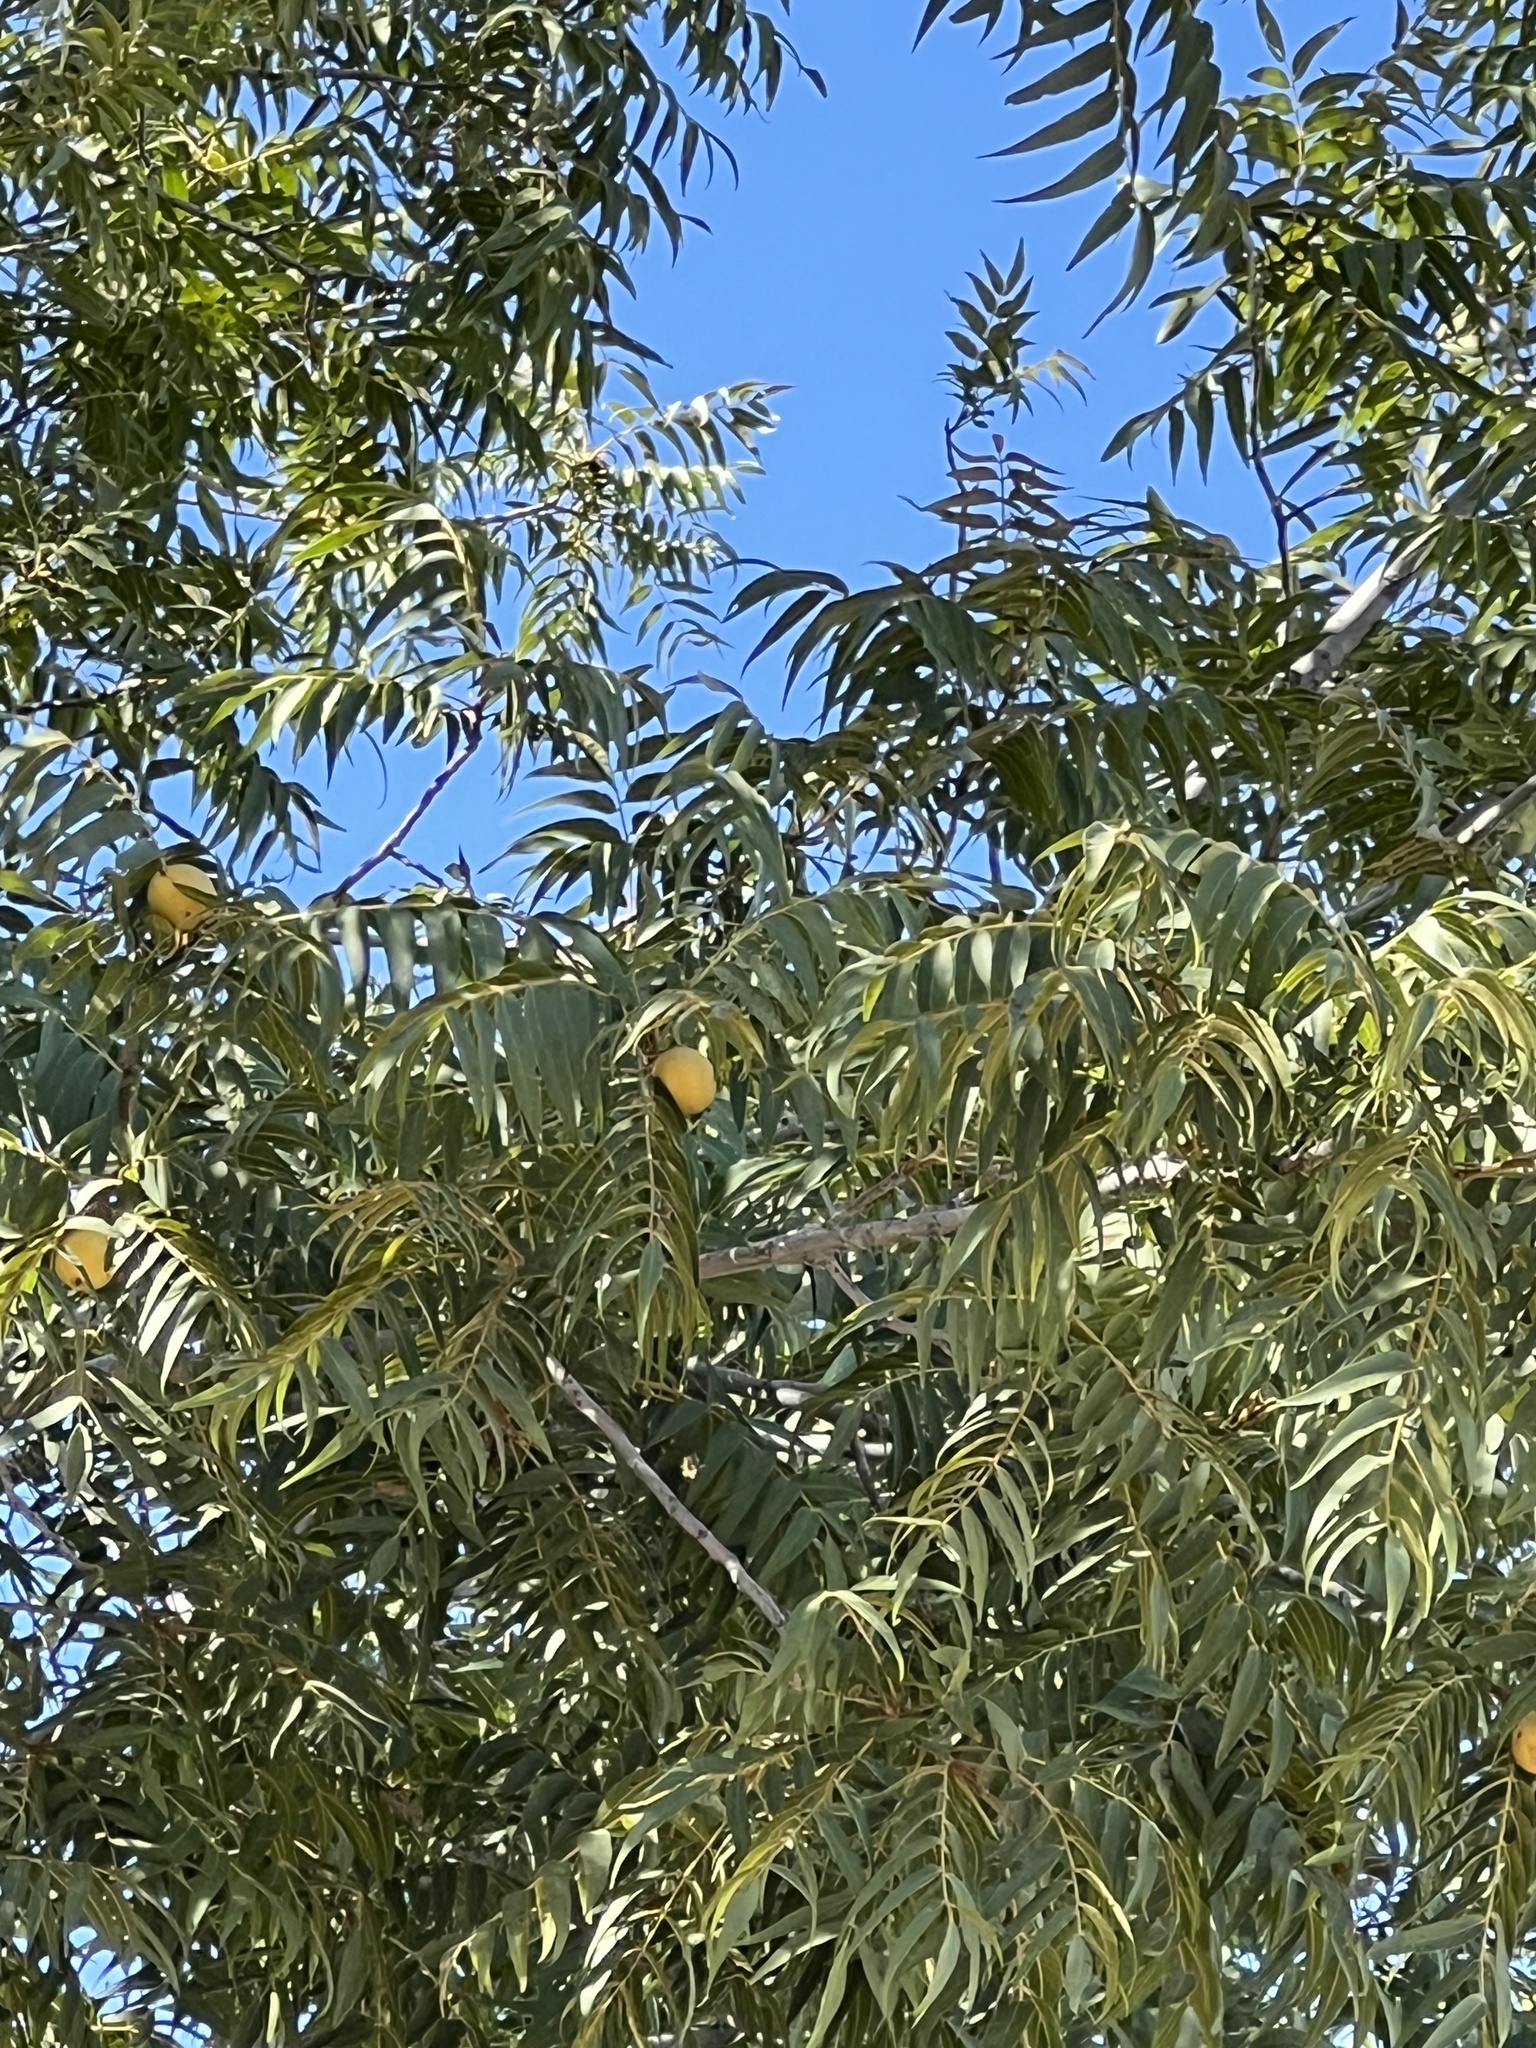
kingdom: Plantae
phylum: Tracheophyta
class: Magnoliopsida
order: Fagales
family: Juglandaceae
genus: Juglans
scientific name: Juglans major
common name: Arizona walnut
